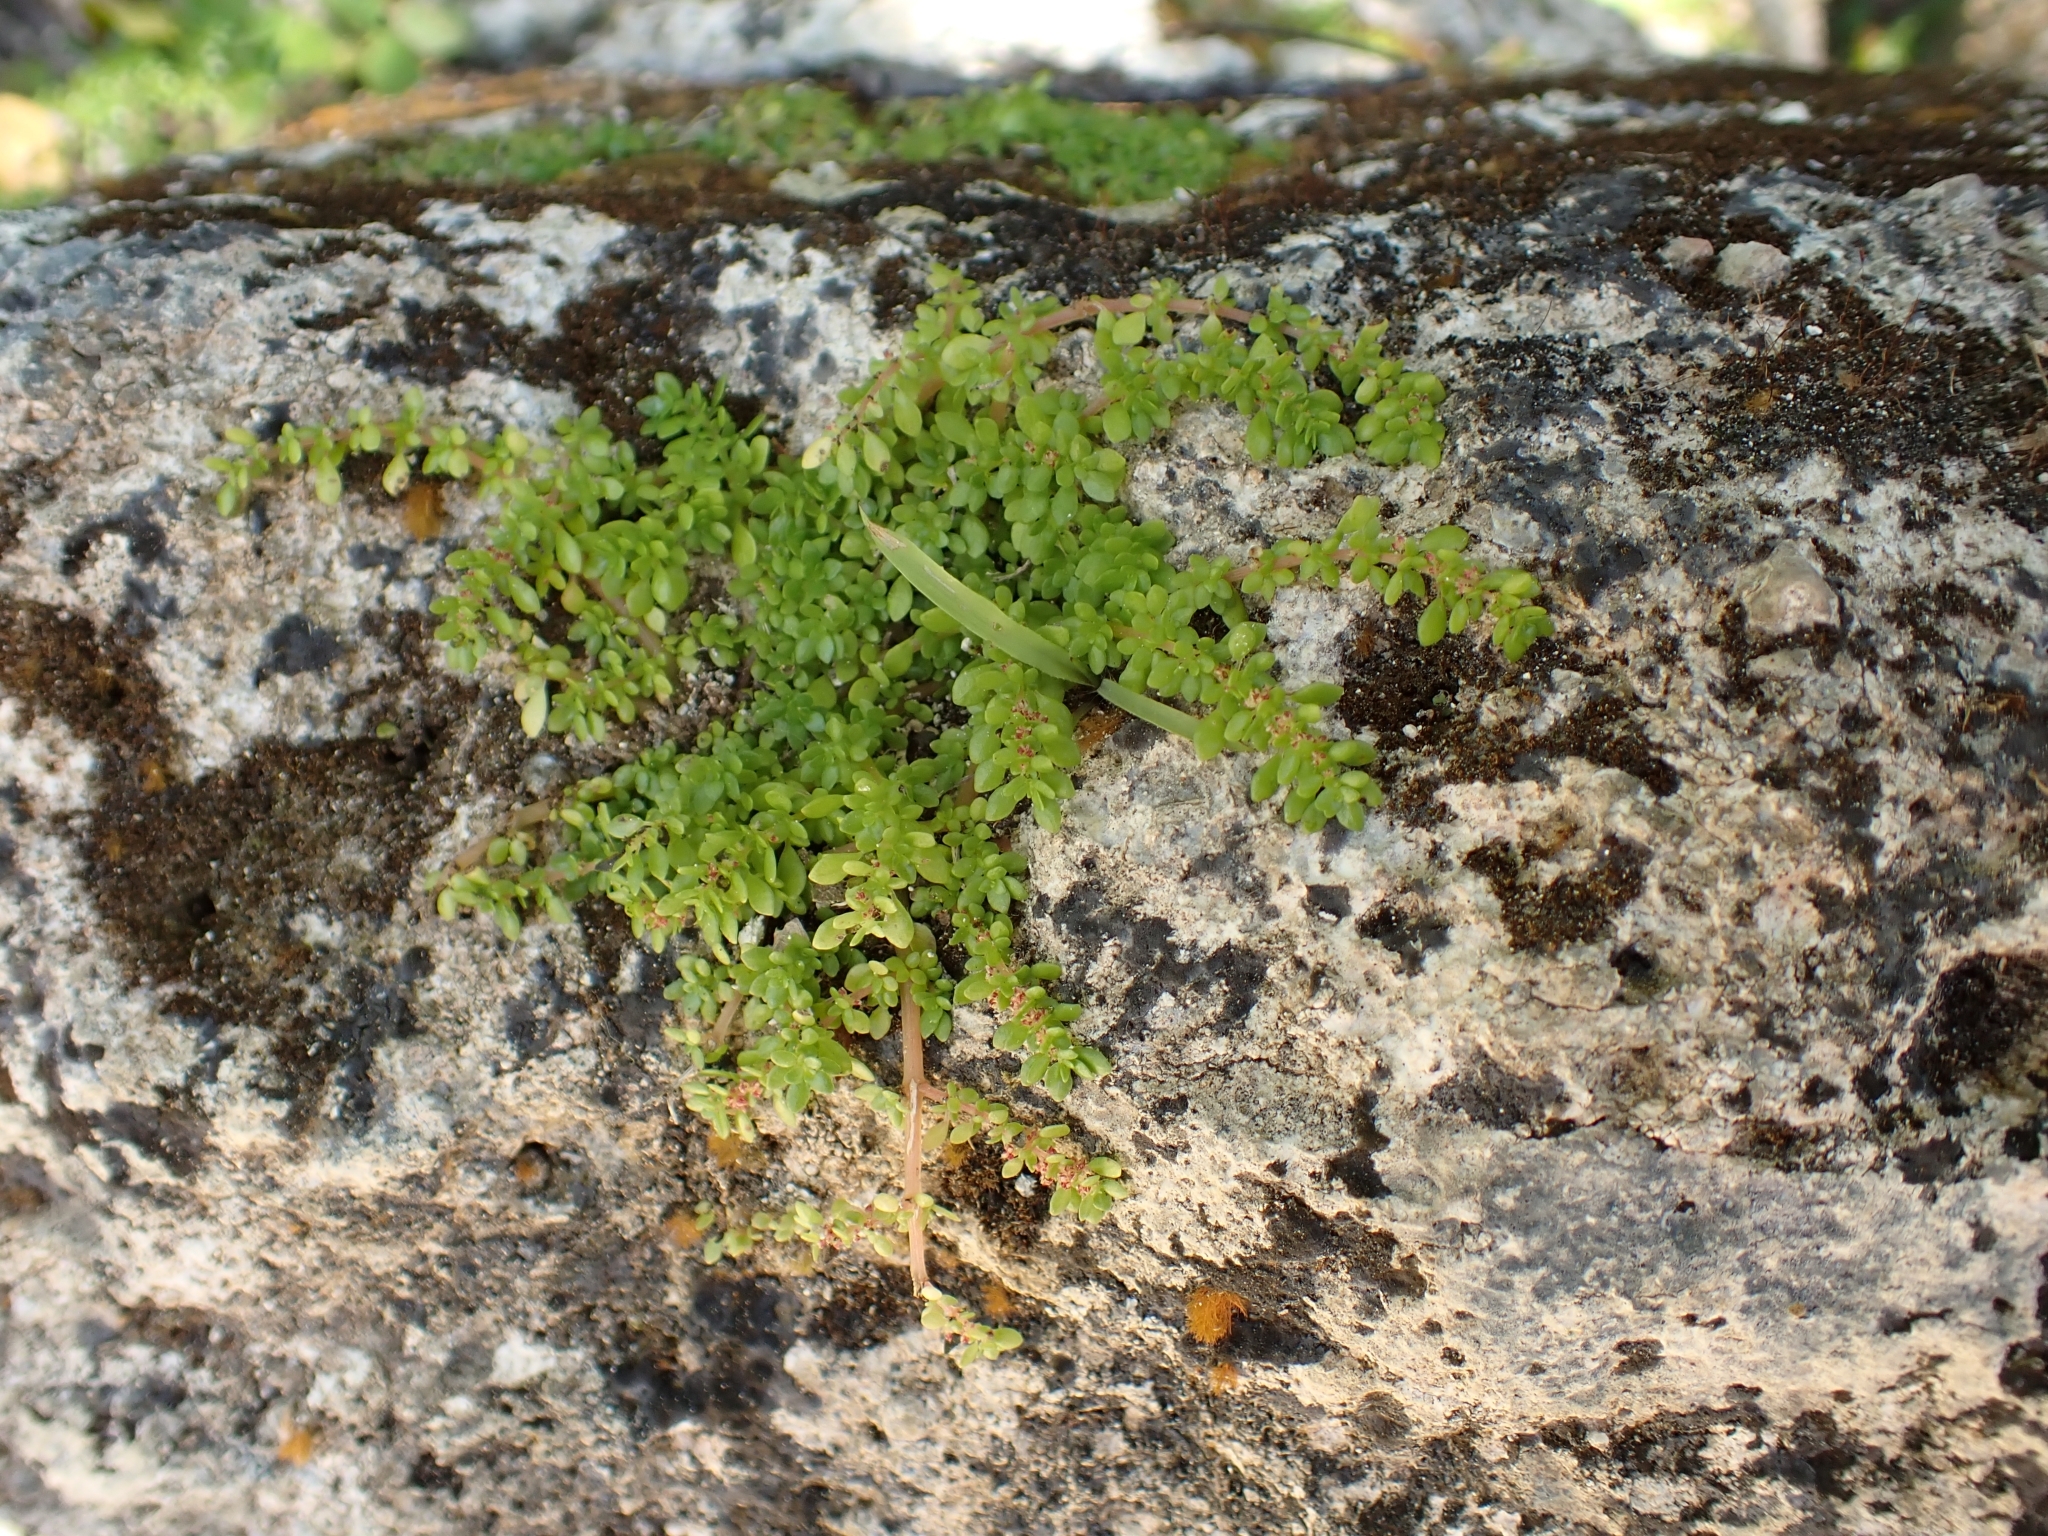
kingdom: Plantae
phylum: Tracheophyta
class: Magnoliopsida
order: Rosales
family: Urticaceae
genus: Pilea
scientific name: Pilea microphylla
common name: Artillery-plant
